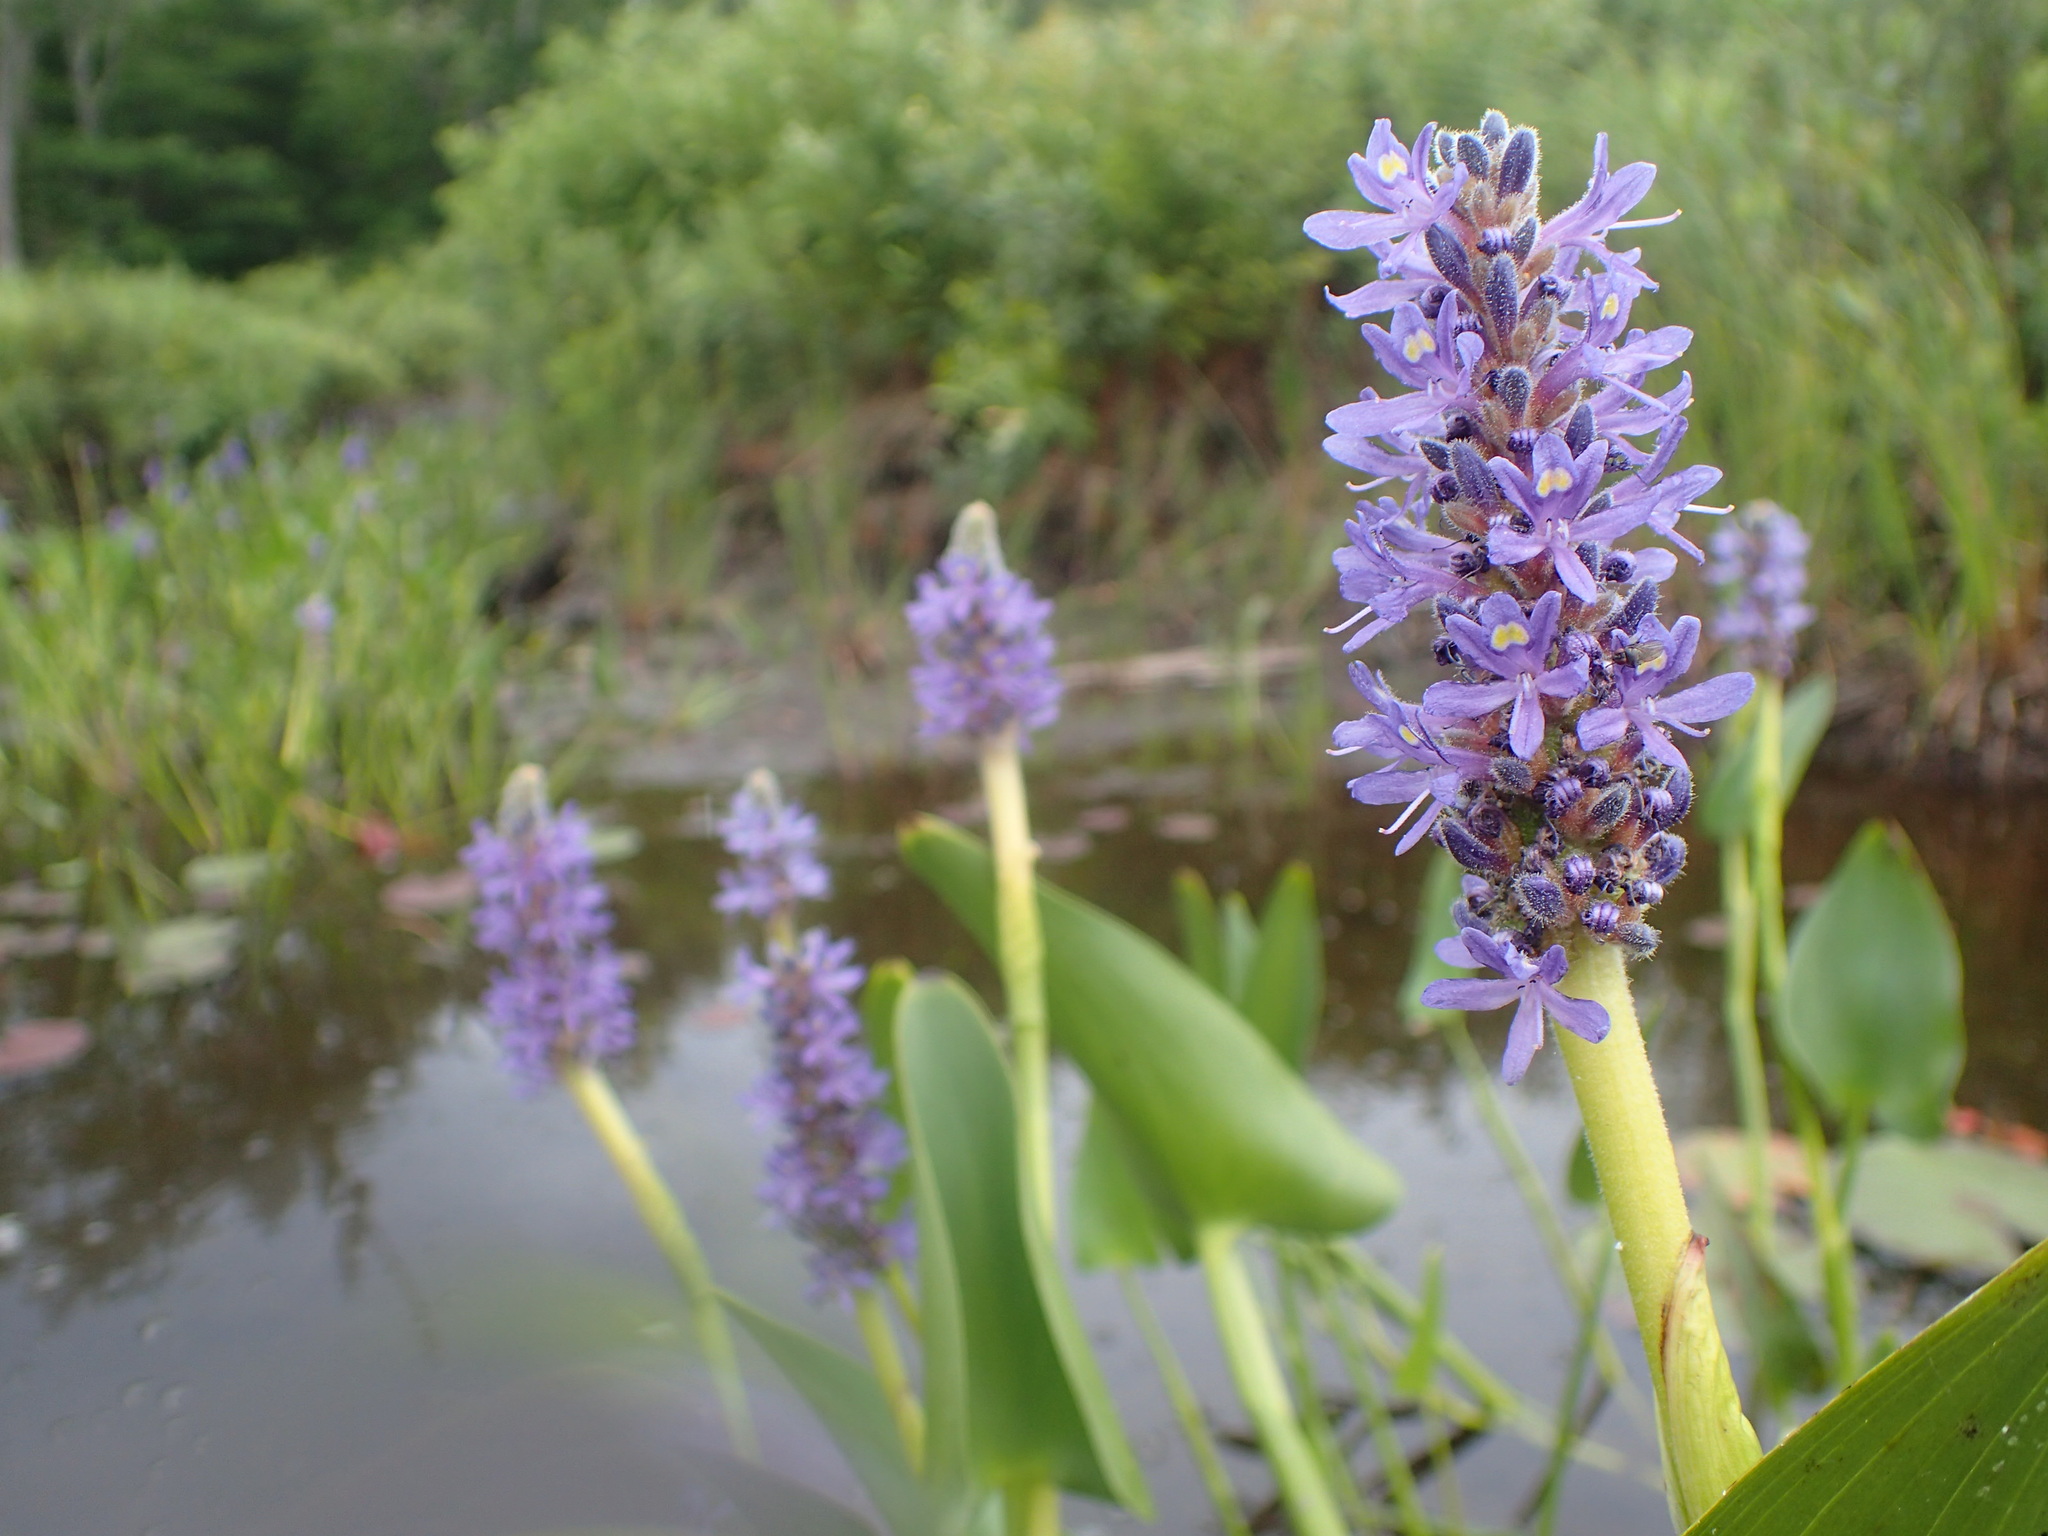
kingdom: Plantae
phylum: Tracheophyta
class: Liliopsida
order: Commelinales
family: Pontederiaceae
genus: Pontederia
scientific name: Pontederia cordata
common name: Pickerelweed
